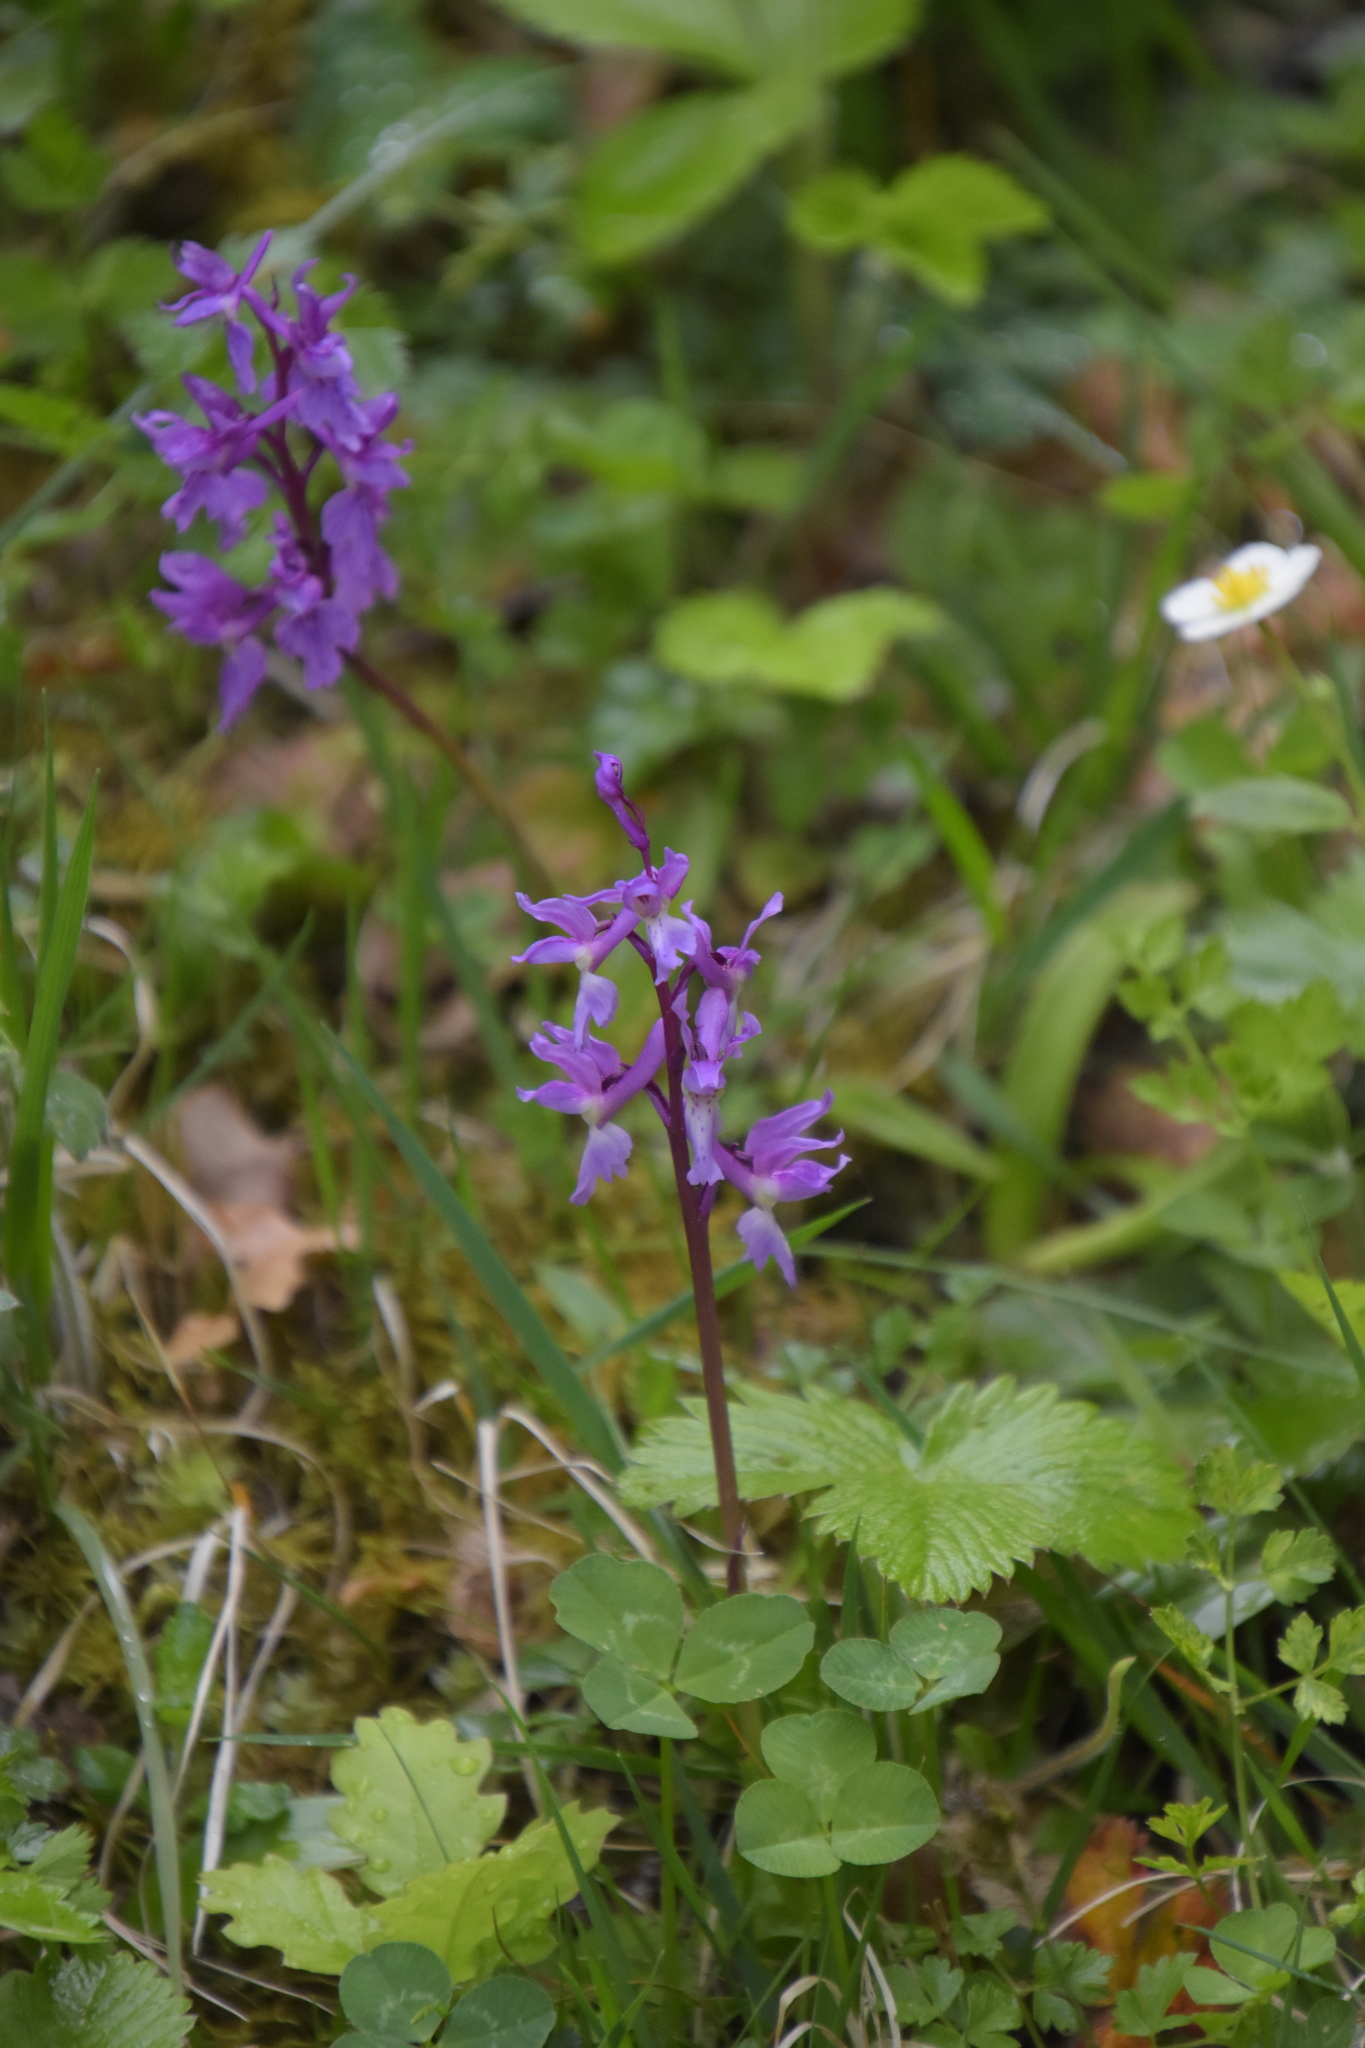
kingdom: Plantae
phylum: Tracheophyta
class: Liliopsida
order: Asparagales
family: Orchidaceae
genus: Orchis
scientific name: Orchis mascula
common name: Early-purple orchid
